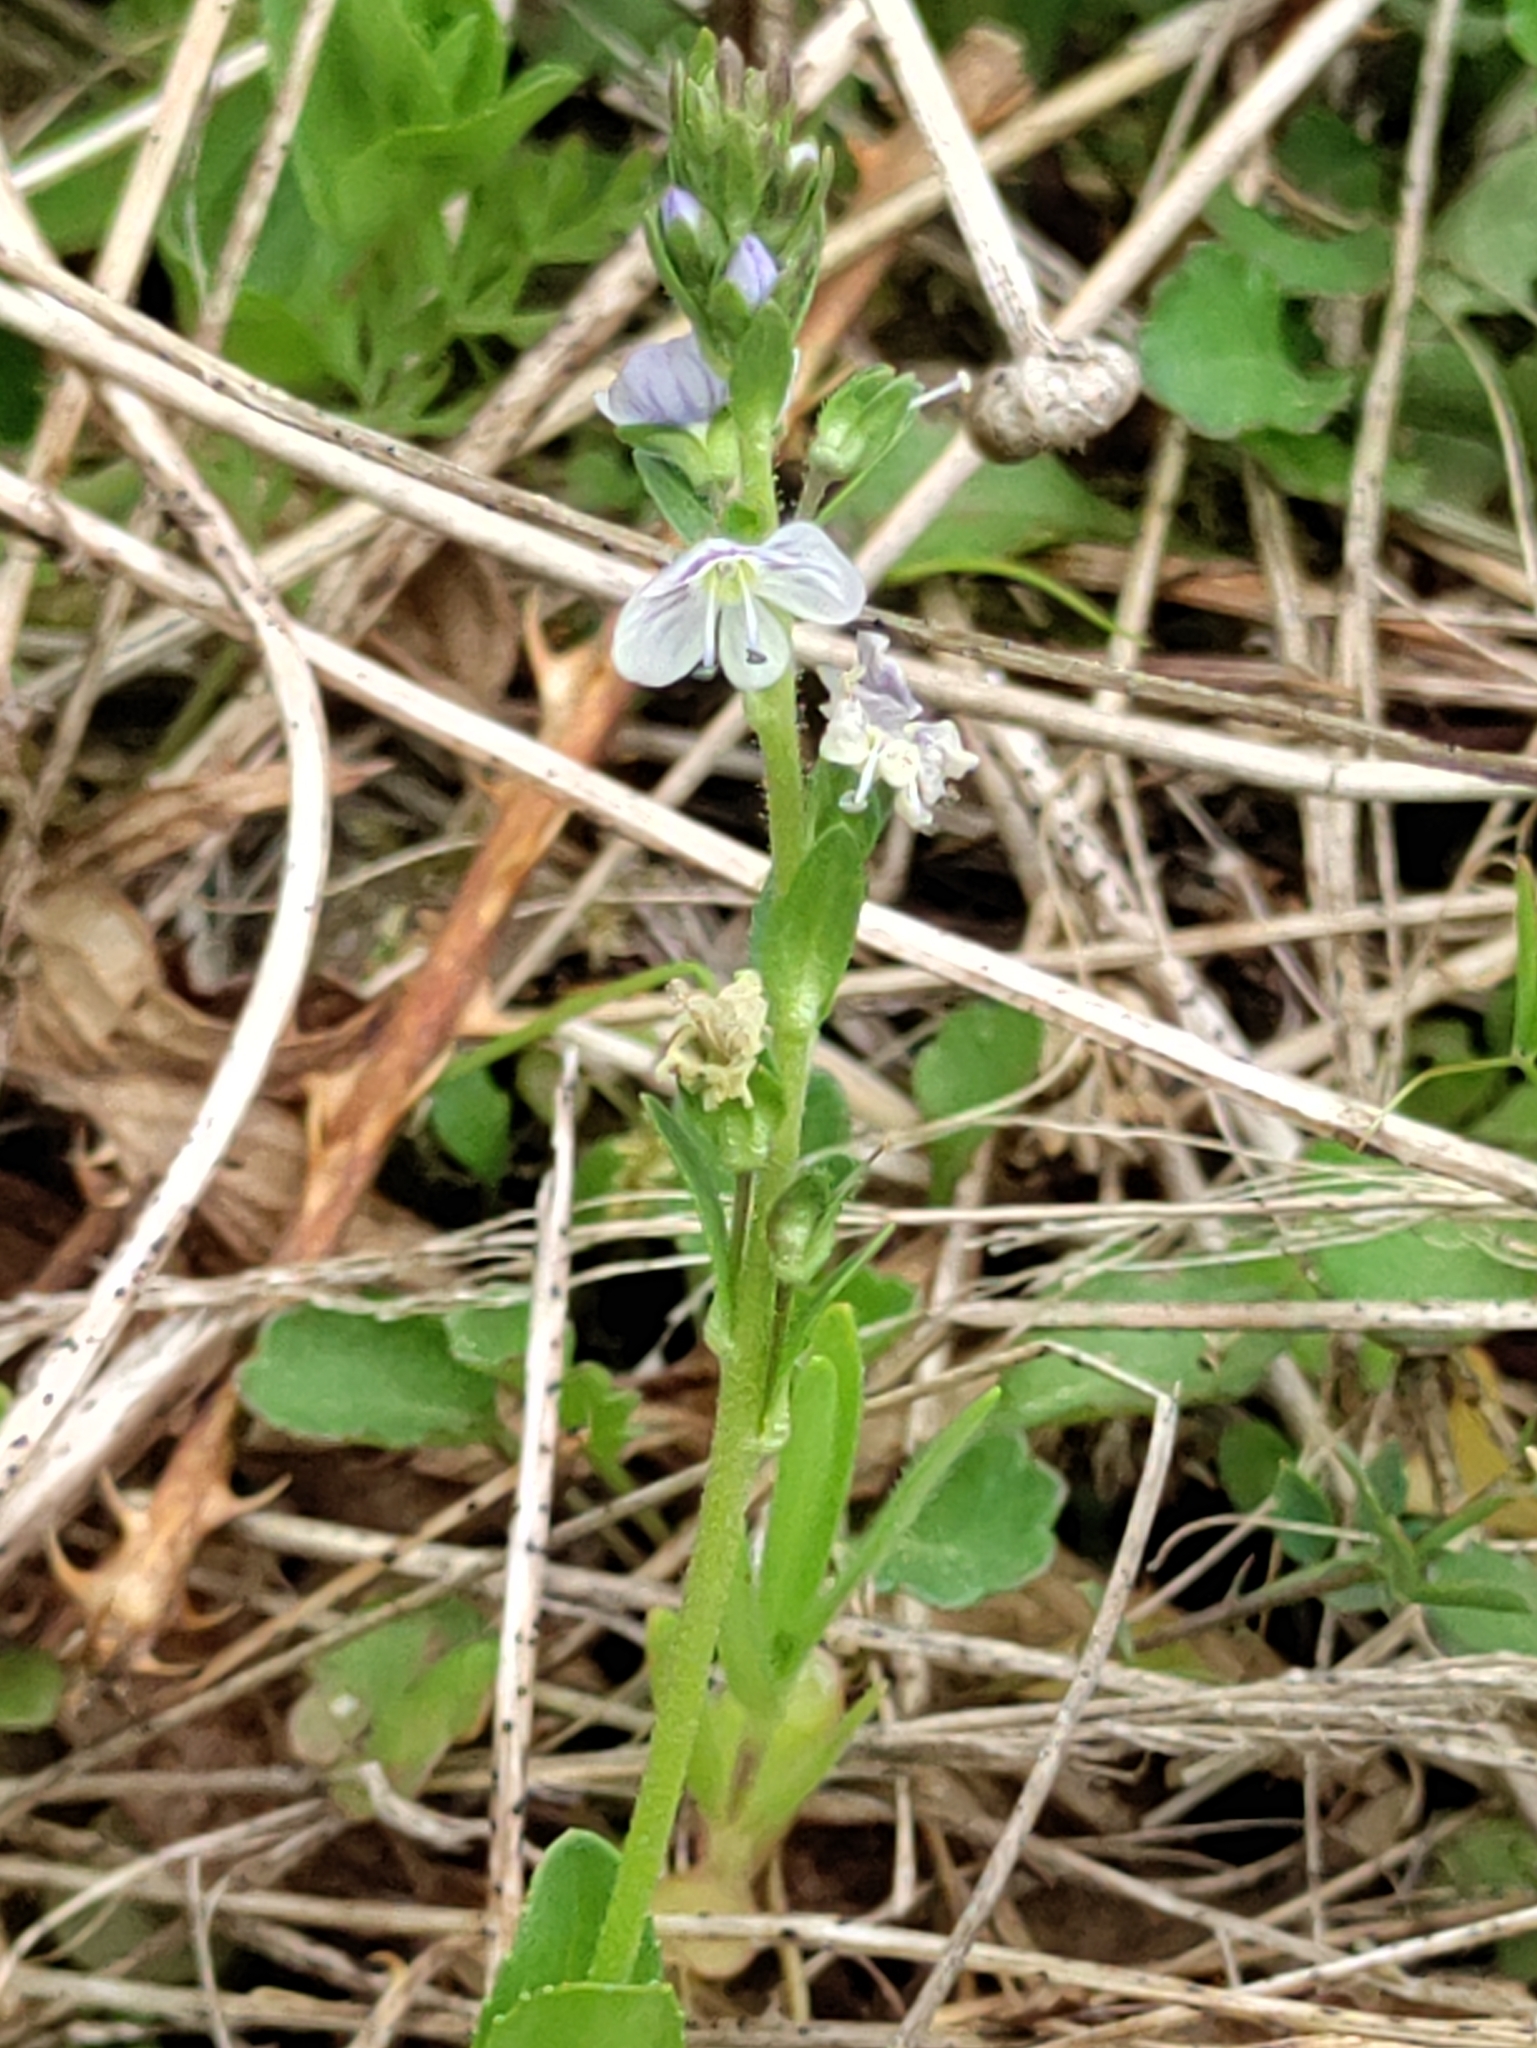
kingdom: Plantae
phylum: Tracheophyta
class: Magnoliopsida
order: Lamiales
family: Plantaginaceae
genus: Veronica
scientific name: Veronica serpyllifolia
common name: Thyme-leaved speedwell
